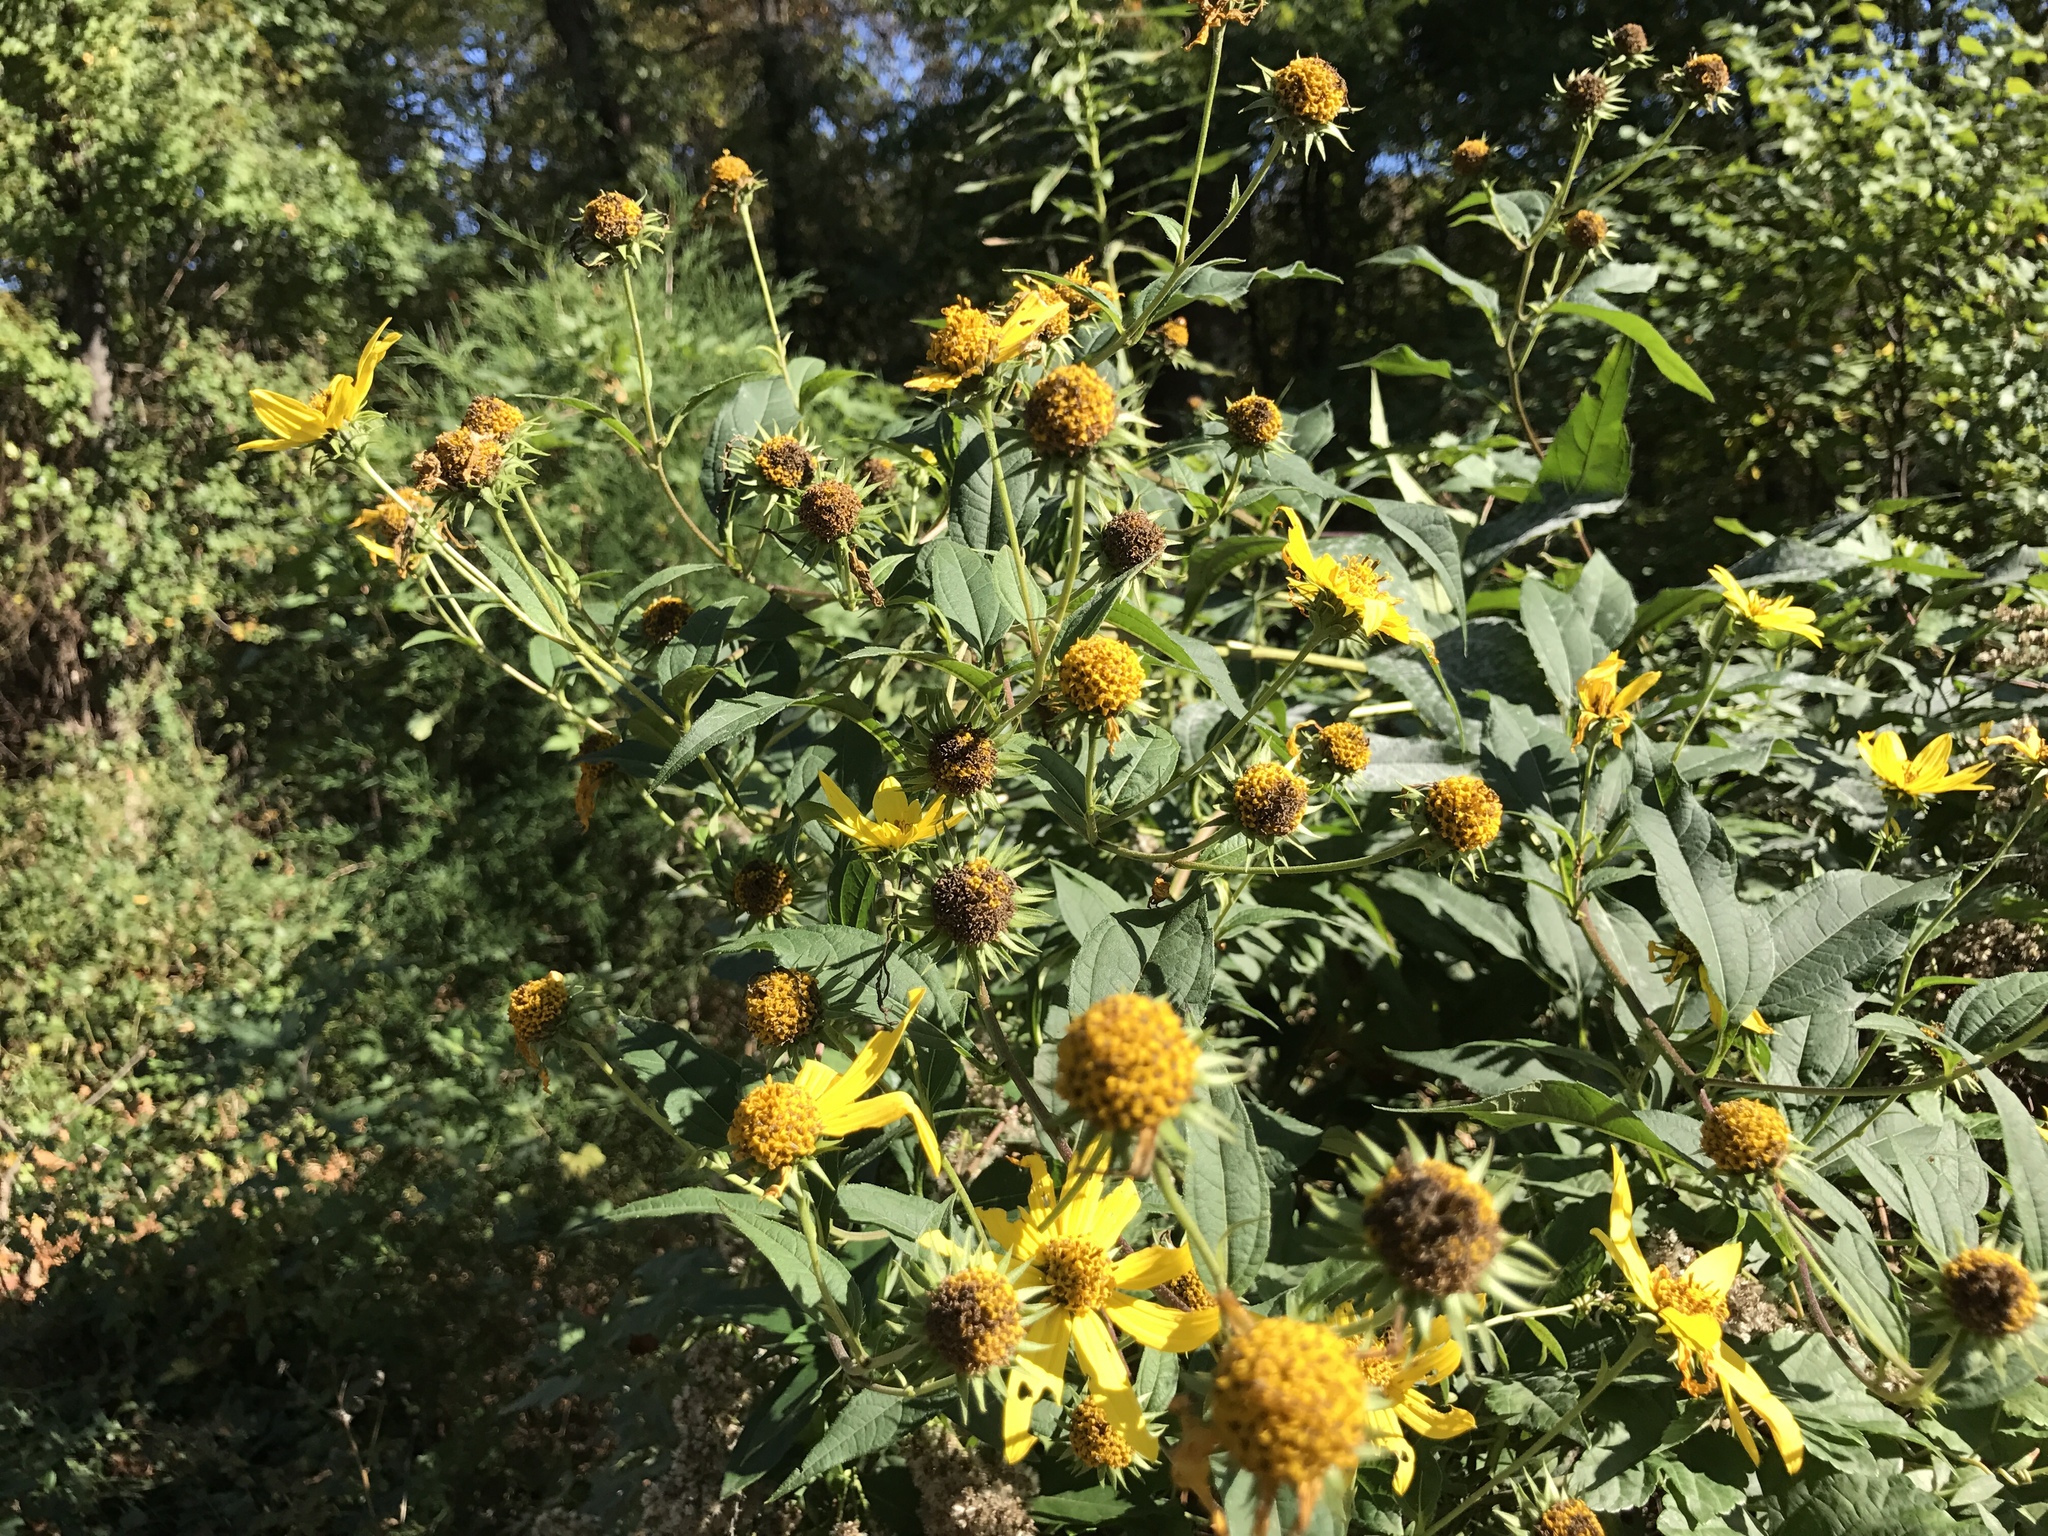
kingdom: Plantae
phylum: Tracheophyta
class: Magnoliopsida
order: Asterales
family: Asteraceae
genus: Helianthus
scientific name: Helianthus tuberosus
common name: Jerusalem artichoke
